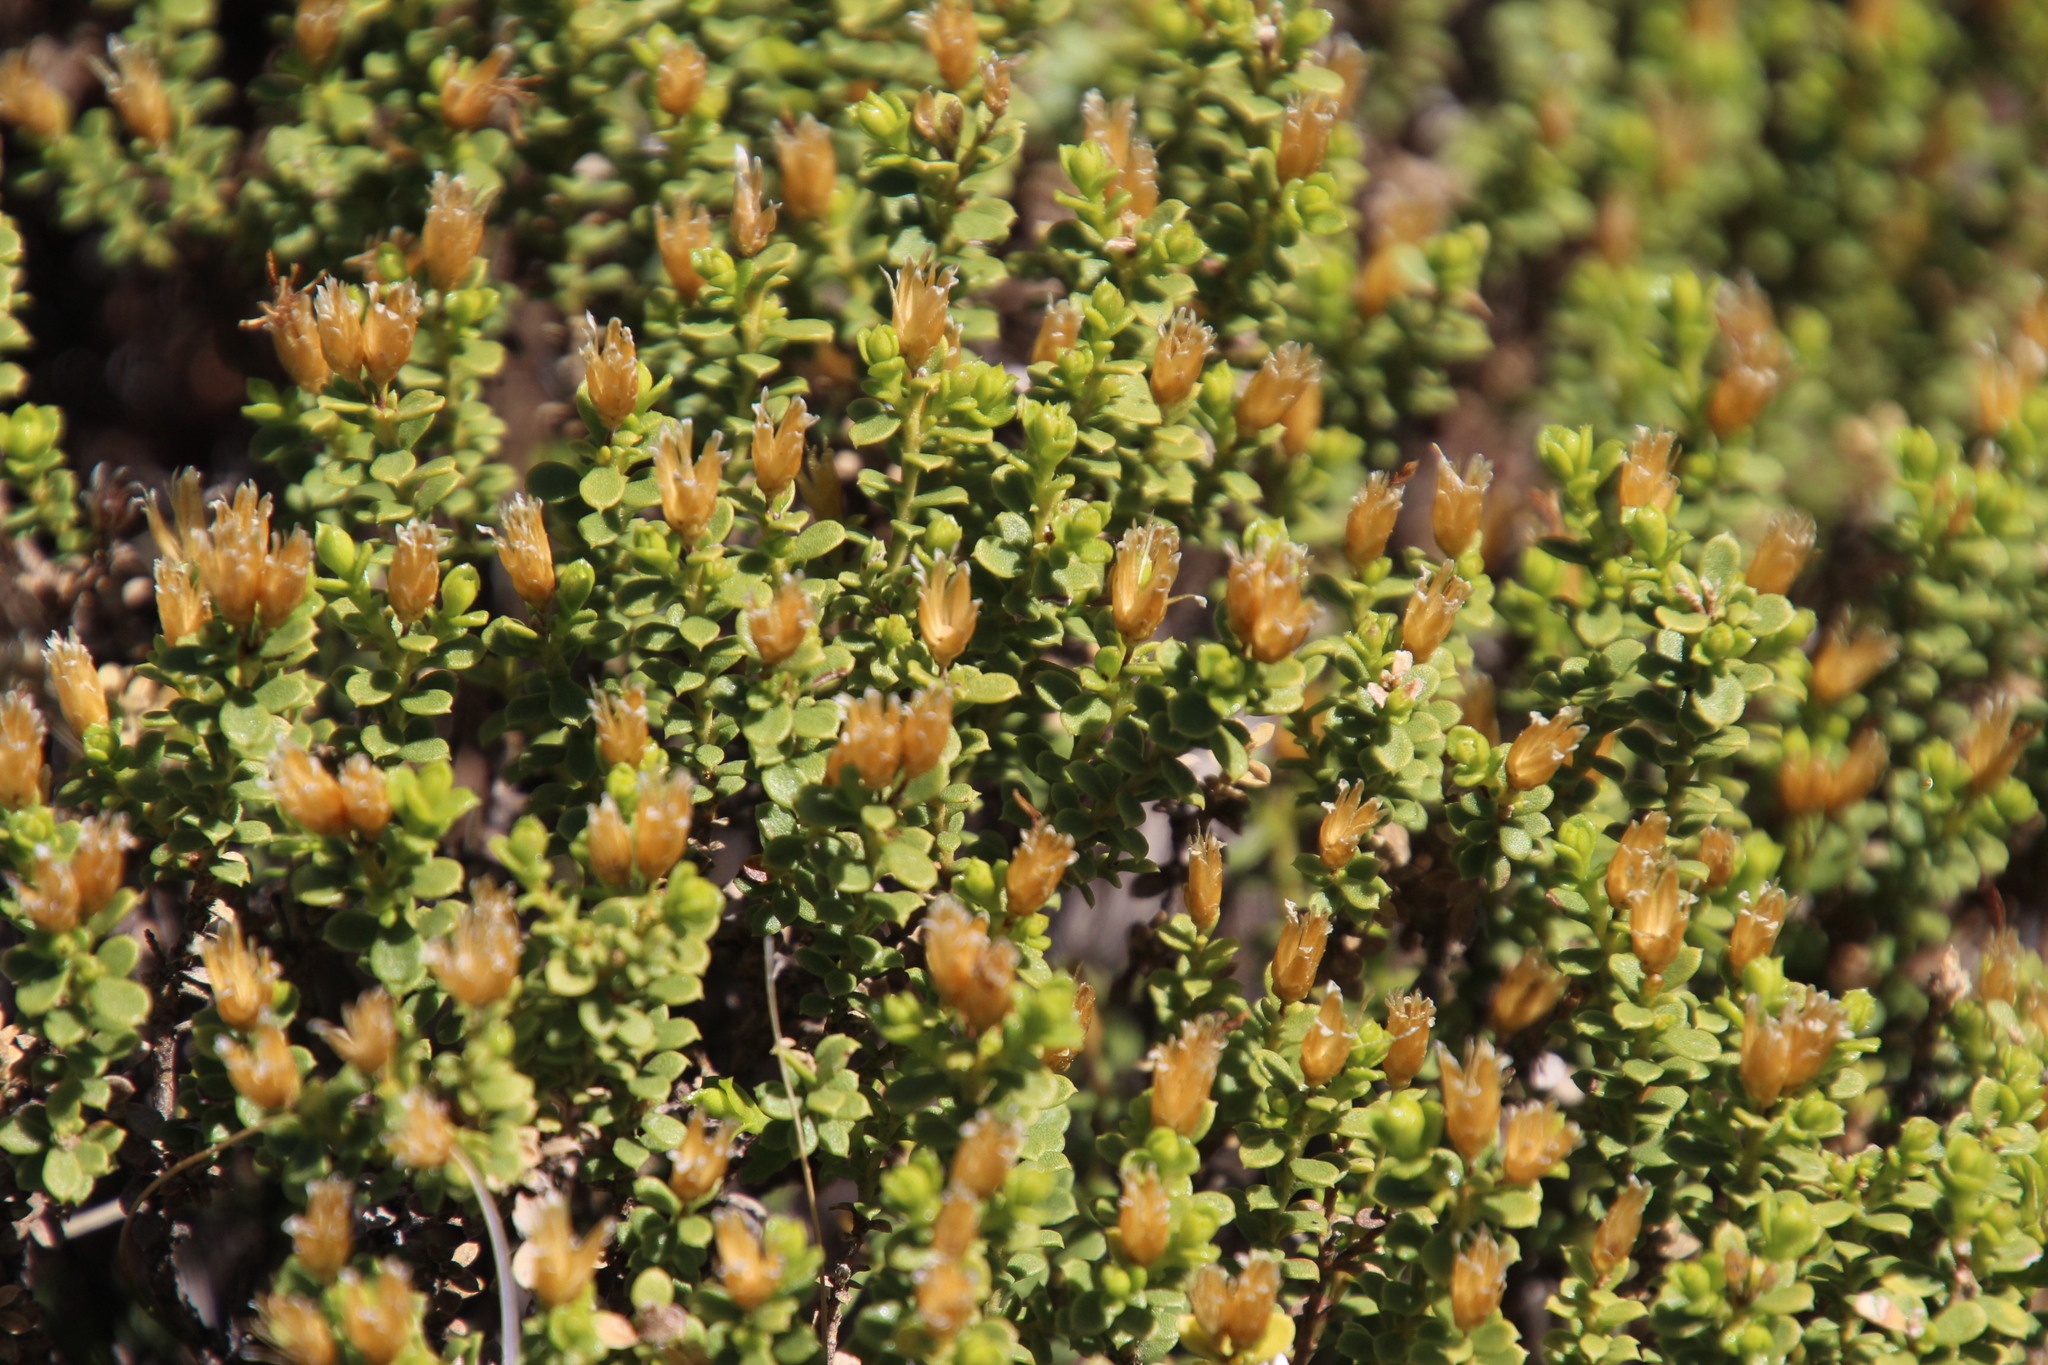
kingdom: Plantae
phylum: Tracheophyta
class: Magnoliopsida
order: Asterales
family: Asteraceae
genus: Oedera
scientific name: Oedera conferta
